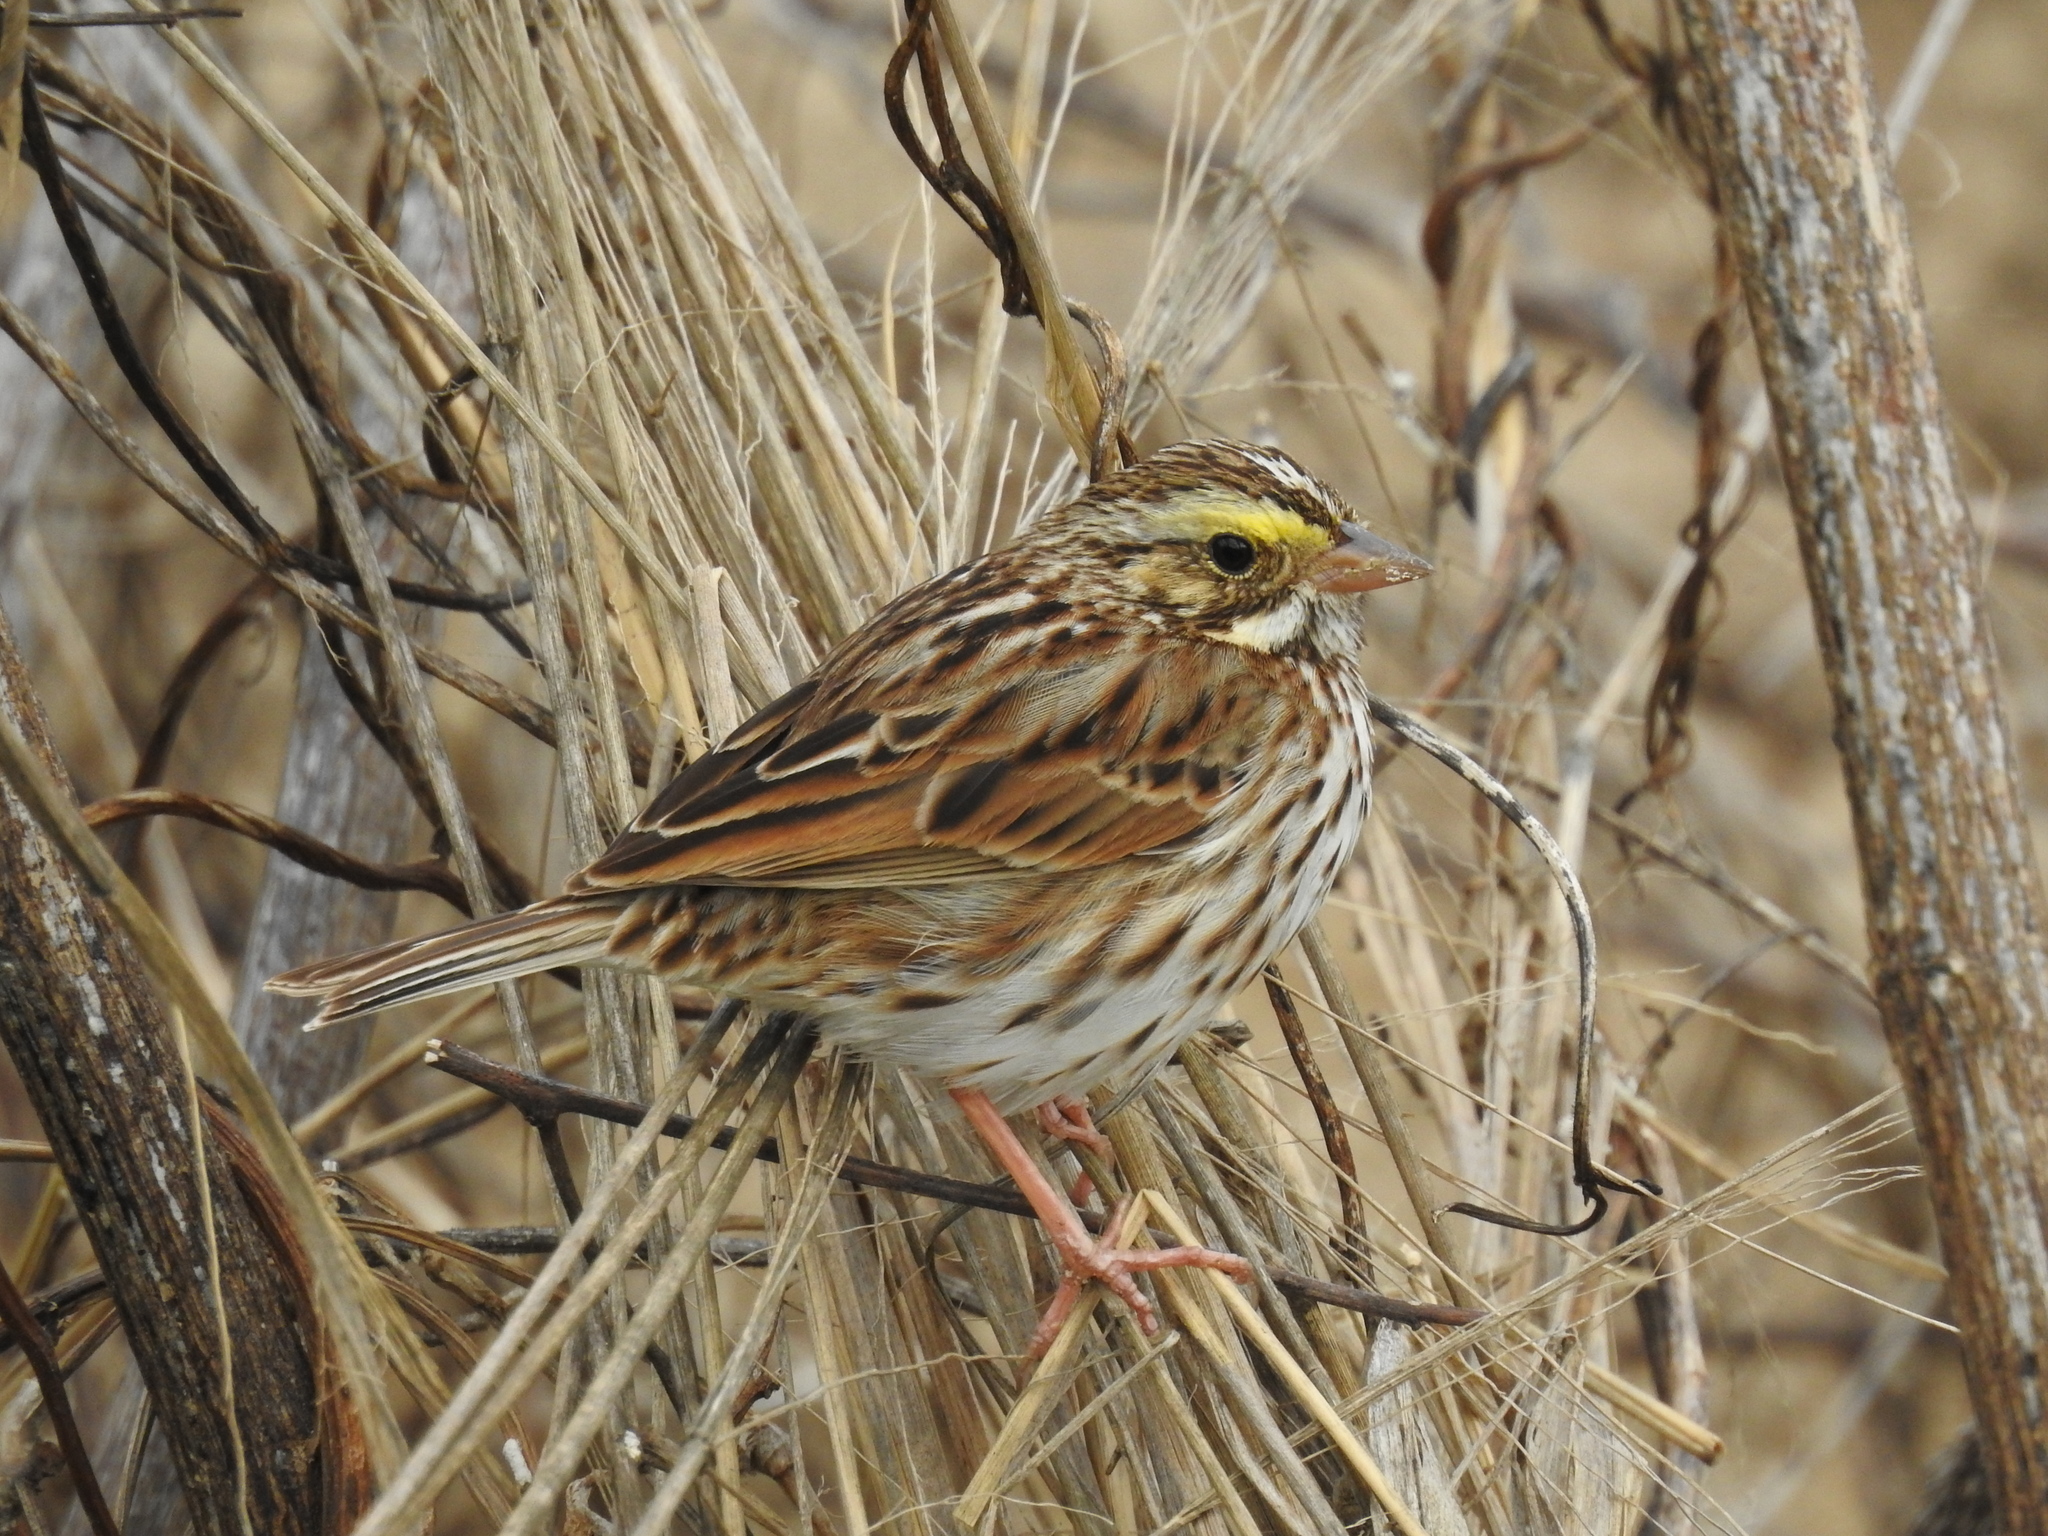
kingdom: Animalia
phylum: Chordata
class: Aves
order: Passeriformes
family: Passerellidae
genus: Passerculus
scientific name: Passerculus sandwichensis
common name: Savannah sparrow
